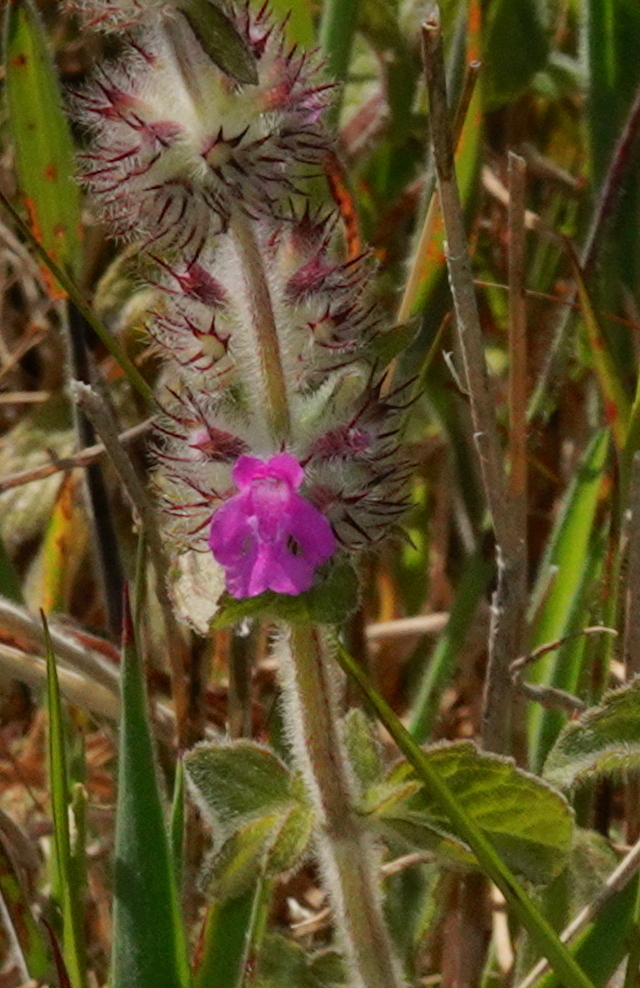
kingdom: Plantae
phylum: Tracheophyta
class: Magnoliopsida
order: Lamiales
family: Lamiaceae
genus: Clinopodium
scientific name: Clinopodium vulgare
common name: Wild basil
